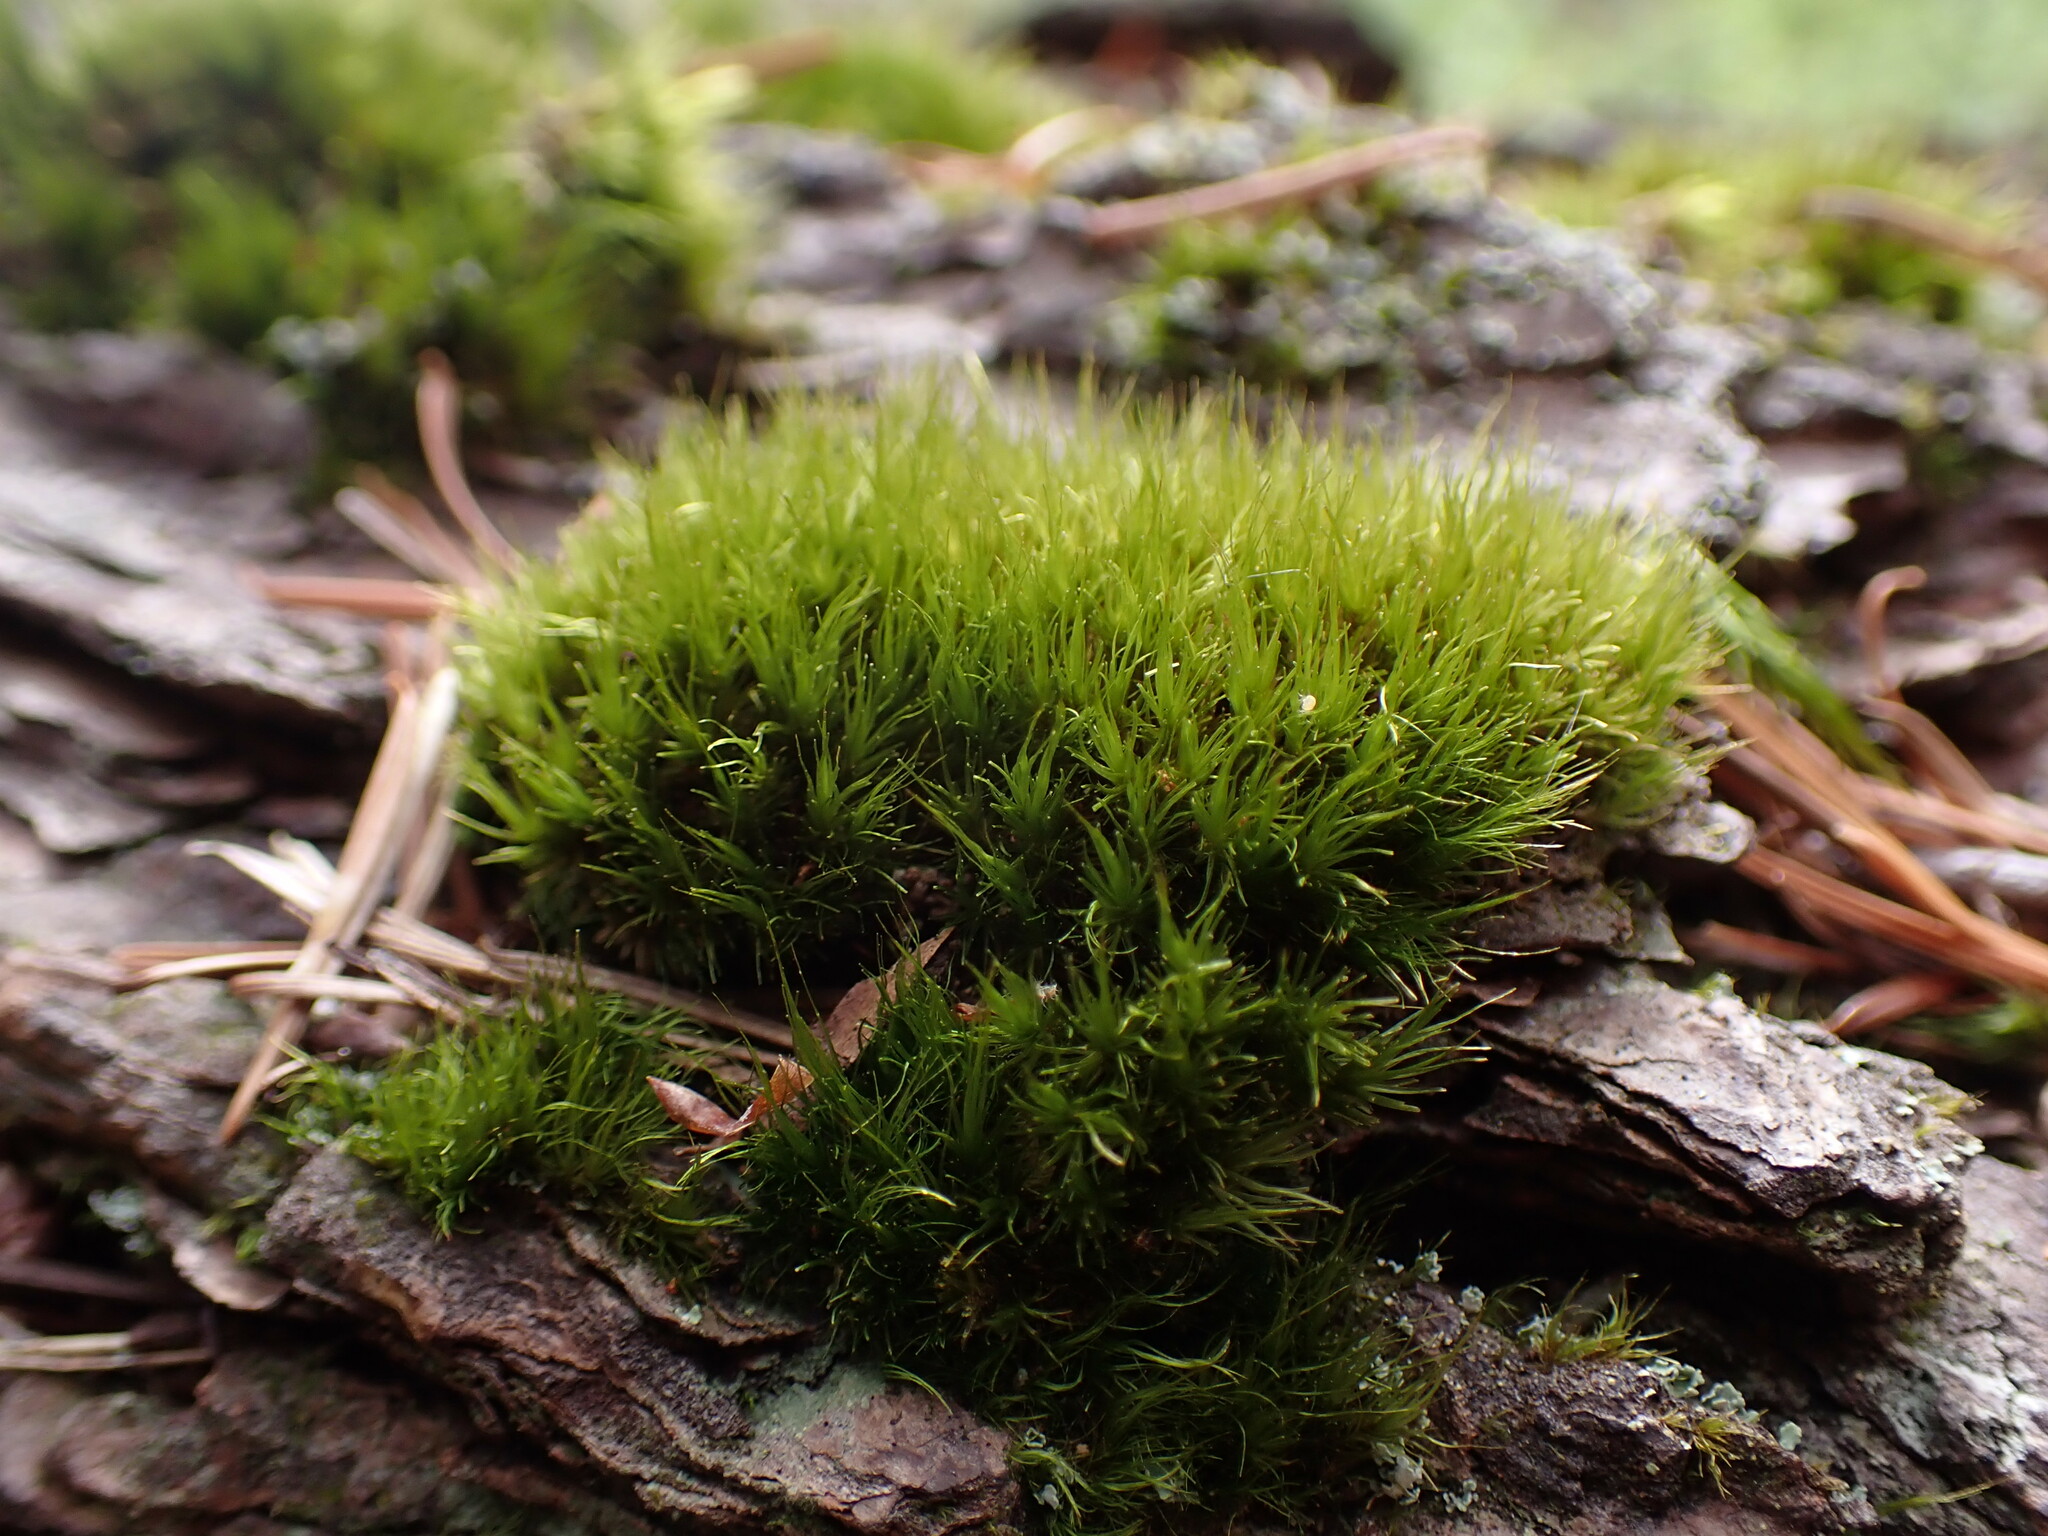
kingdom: Plantae
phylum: Bryophyta
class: Bryopsida
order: Dicranales
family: Dicranaceae
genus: Orthodicranum
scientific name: Orthodicranum tauricum
